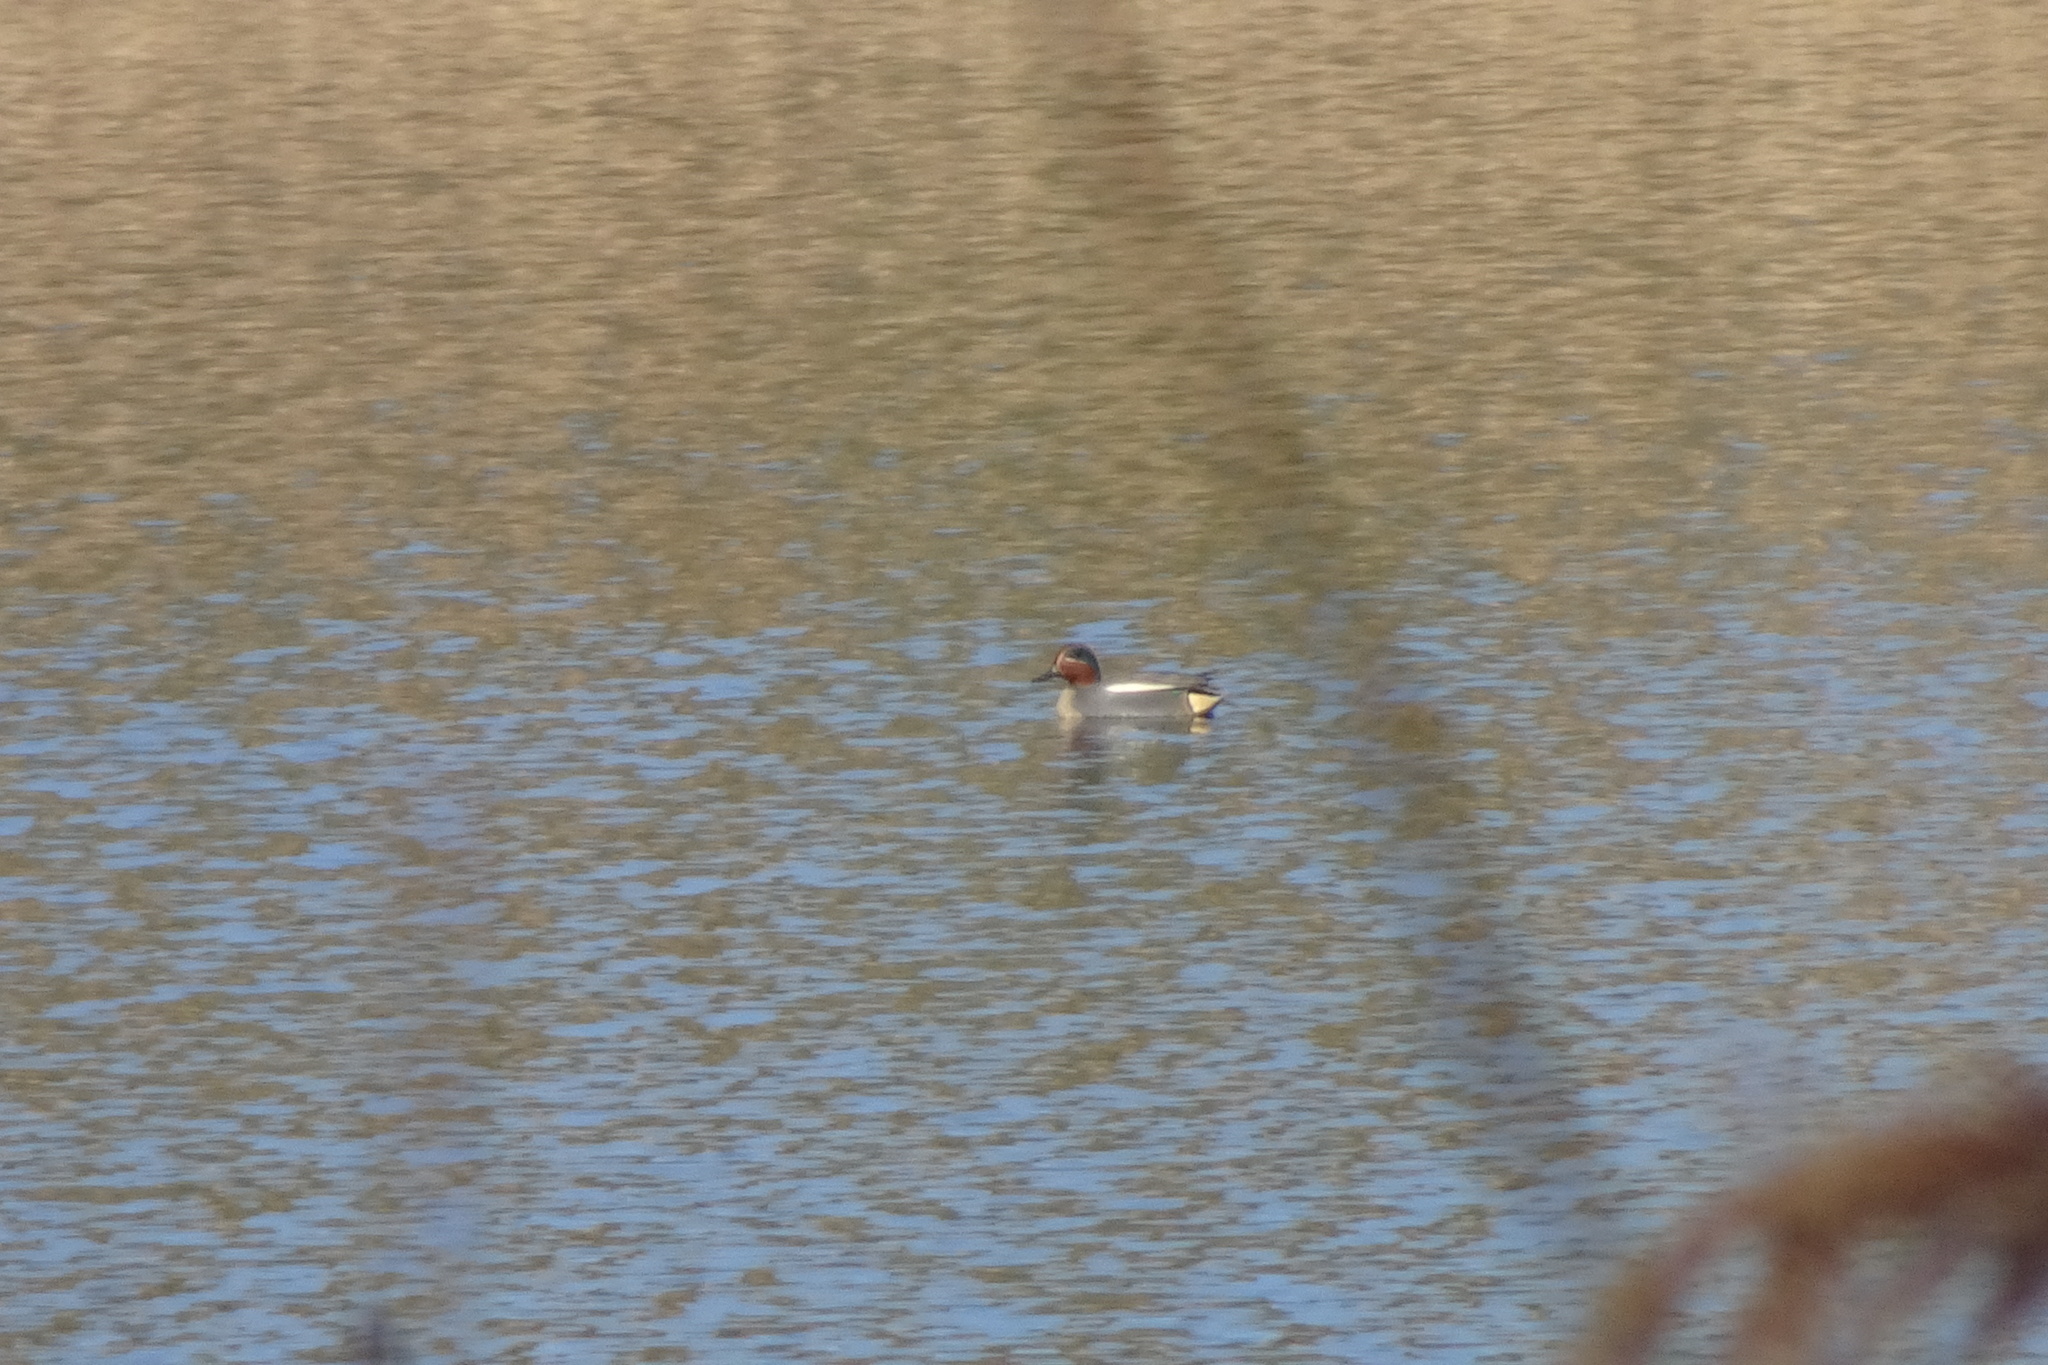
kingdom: Animalia
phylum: Chordata
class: Aves
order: Anseriformes
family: Anatidae
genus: Anas
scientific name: Anas crecca
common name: Eurasian teal
